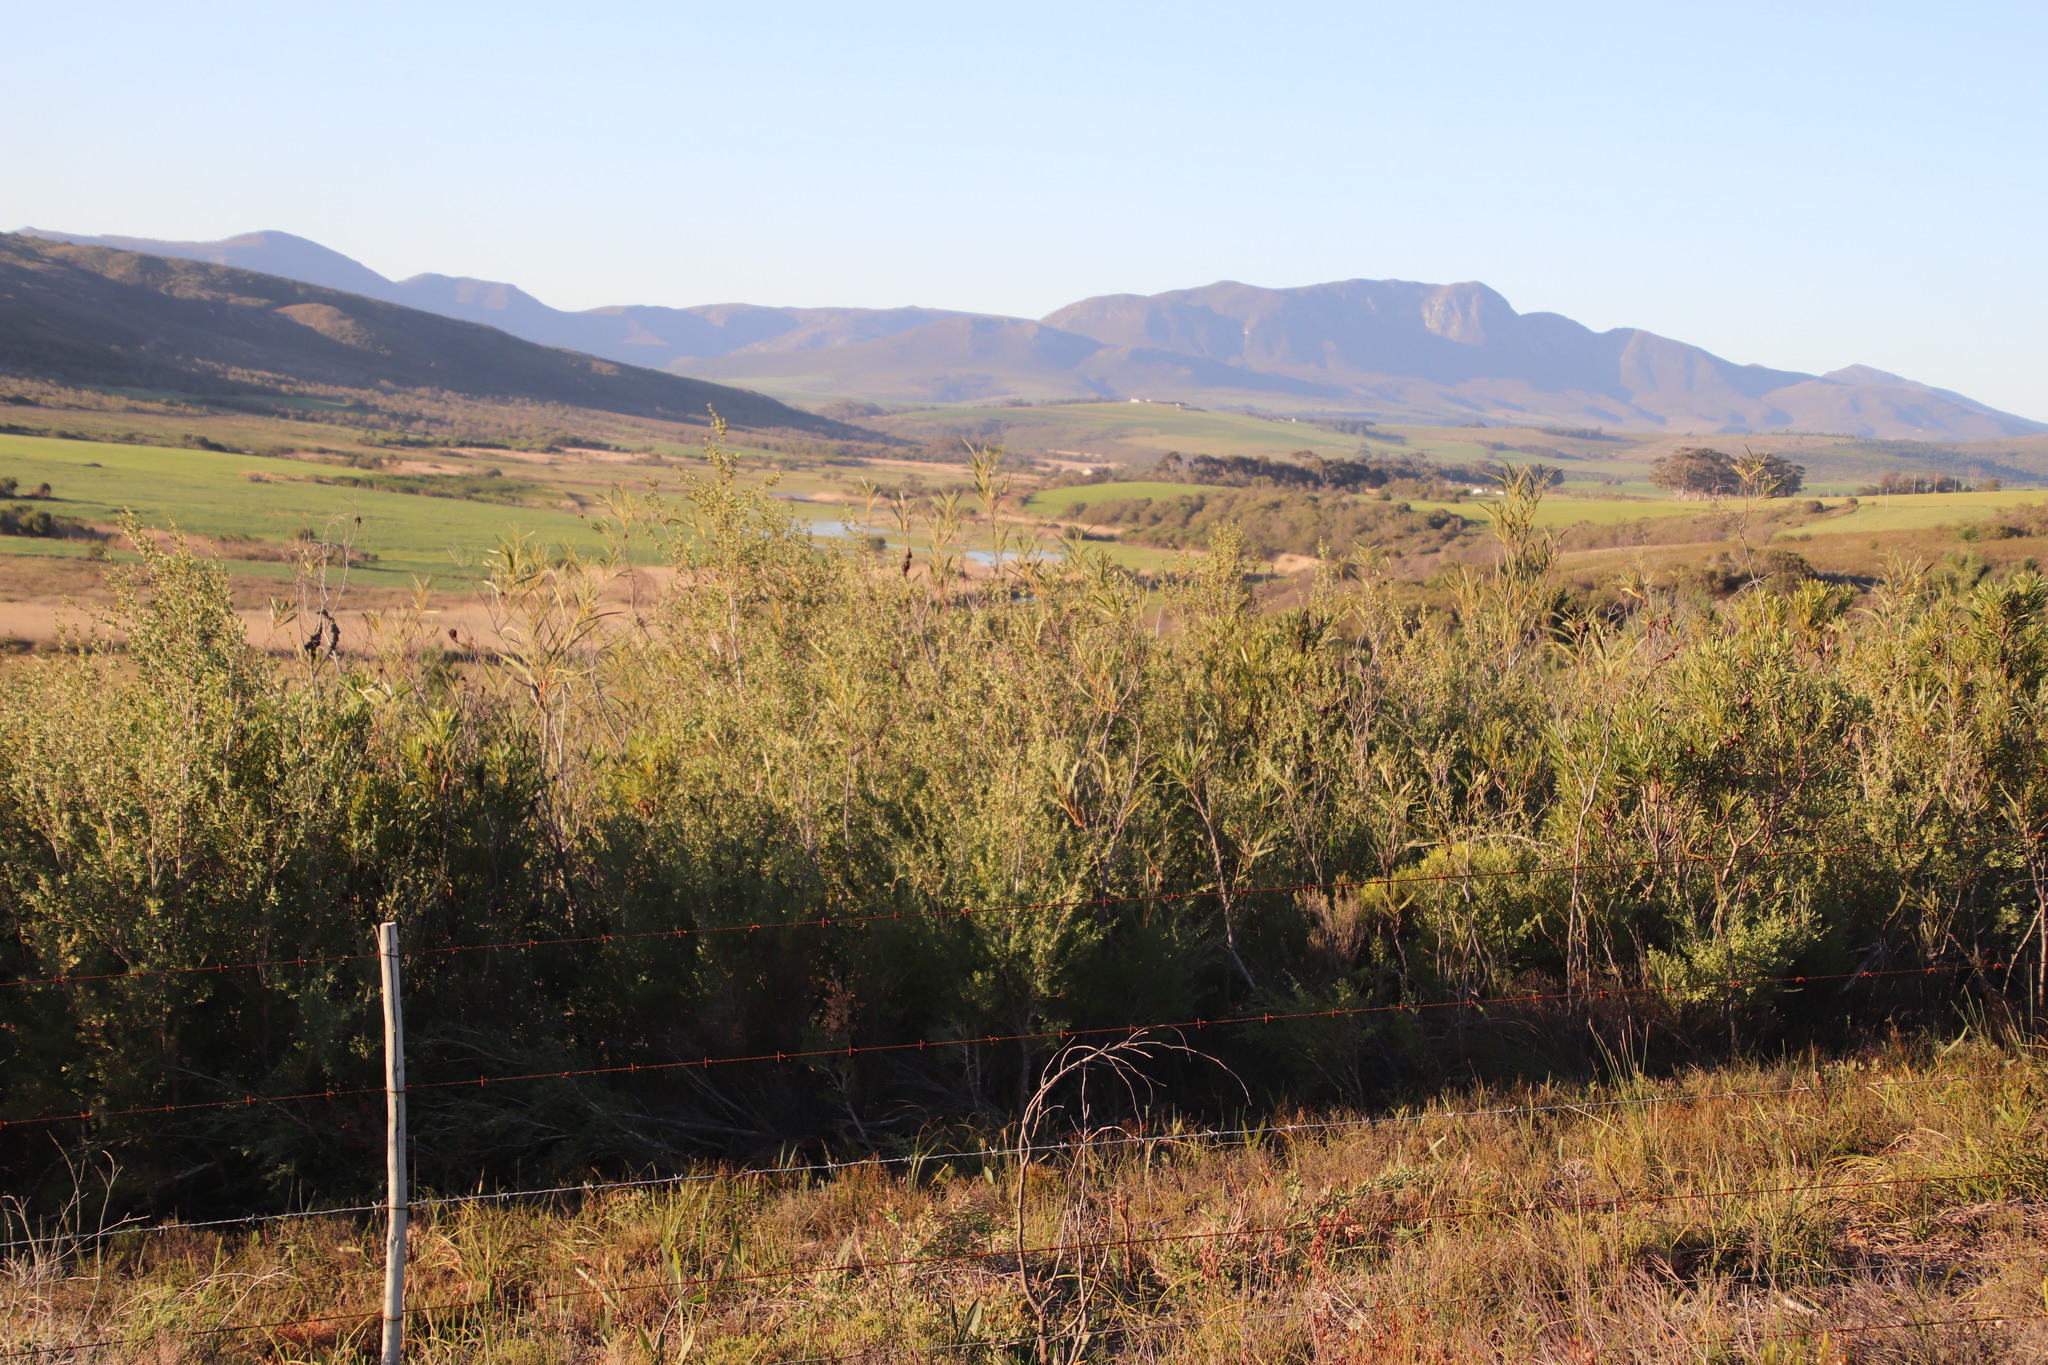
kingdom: Plantae
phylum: Tracheophyta
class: Magnoliopsida
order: Myrtales
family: Myrtaceae
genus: Leptospermum
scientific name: Leptospermum laevigatum
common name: Australian teatree
